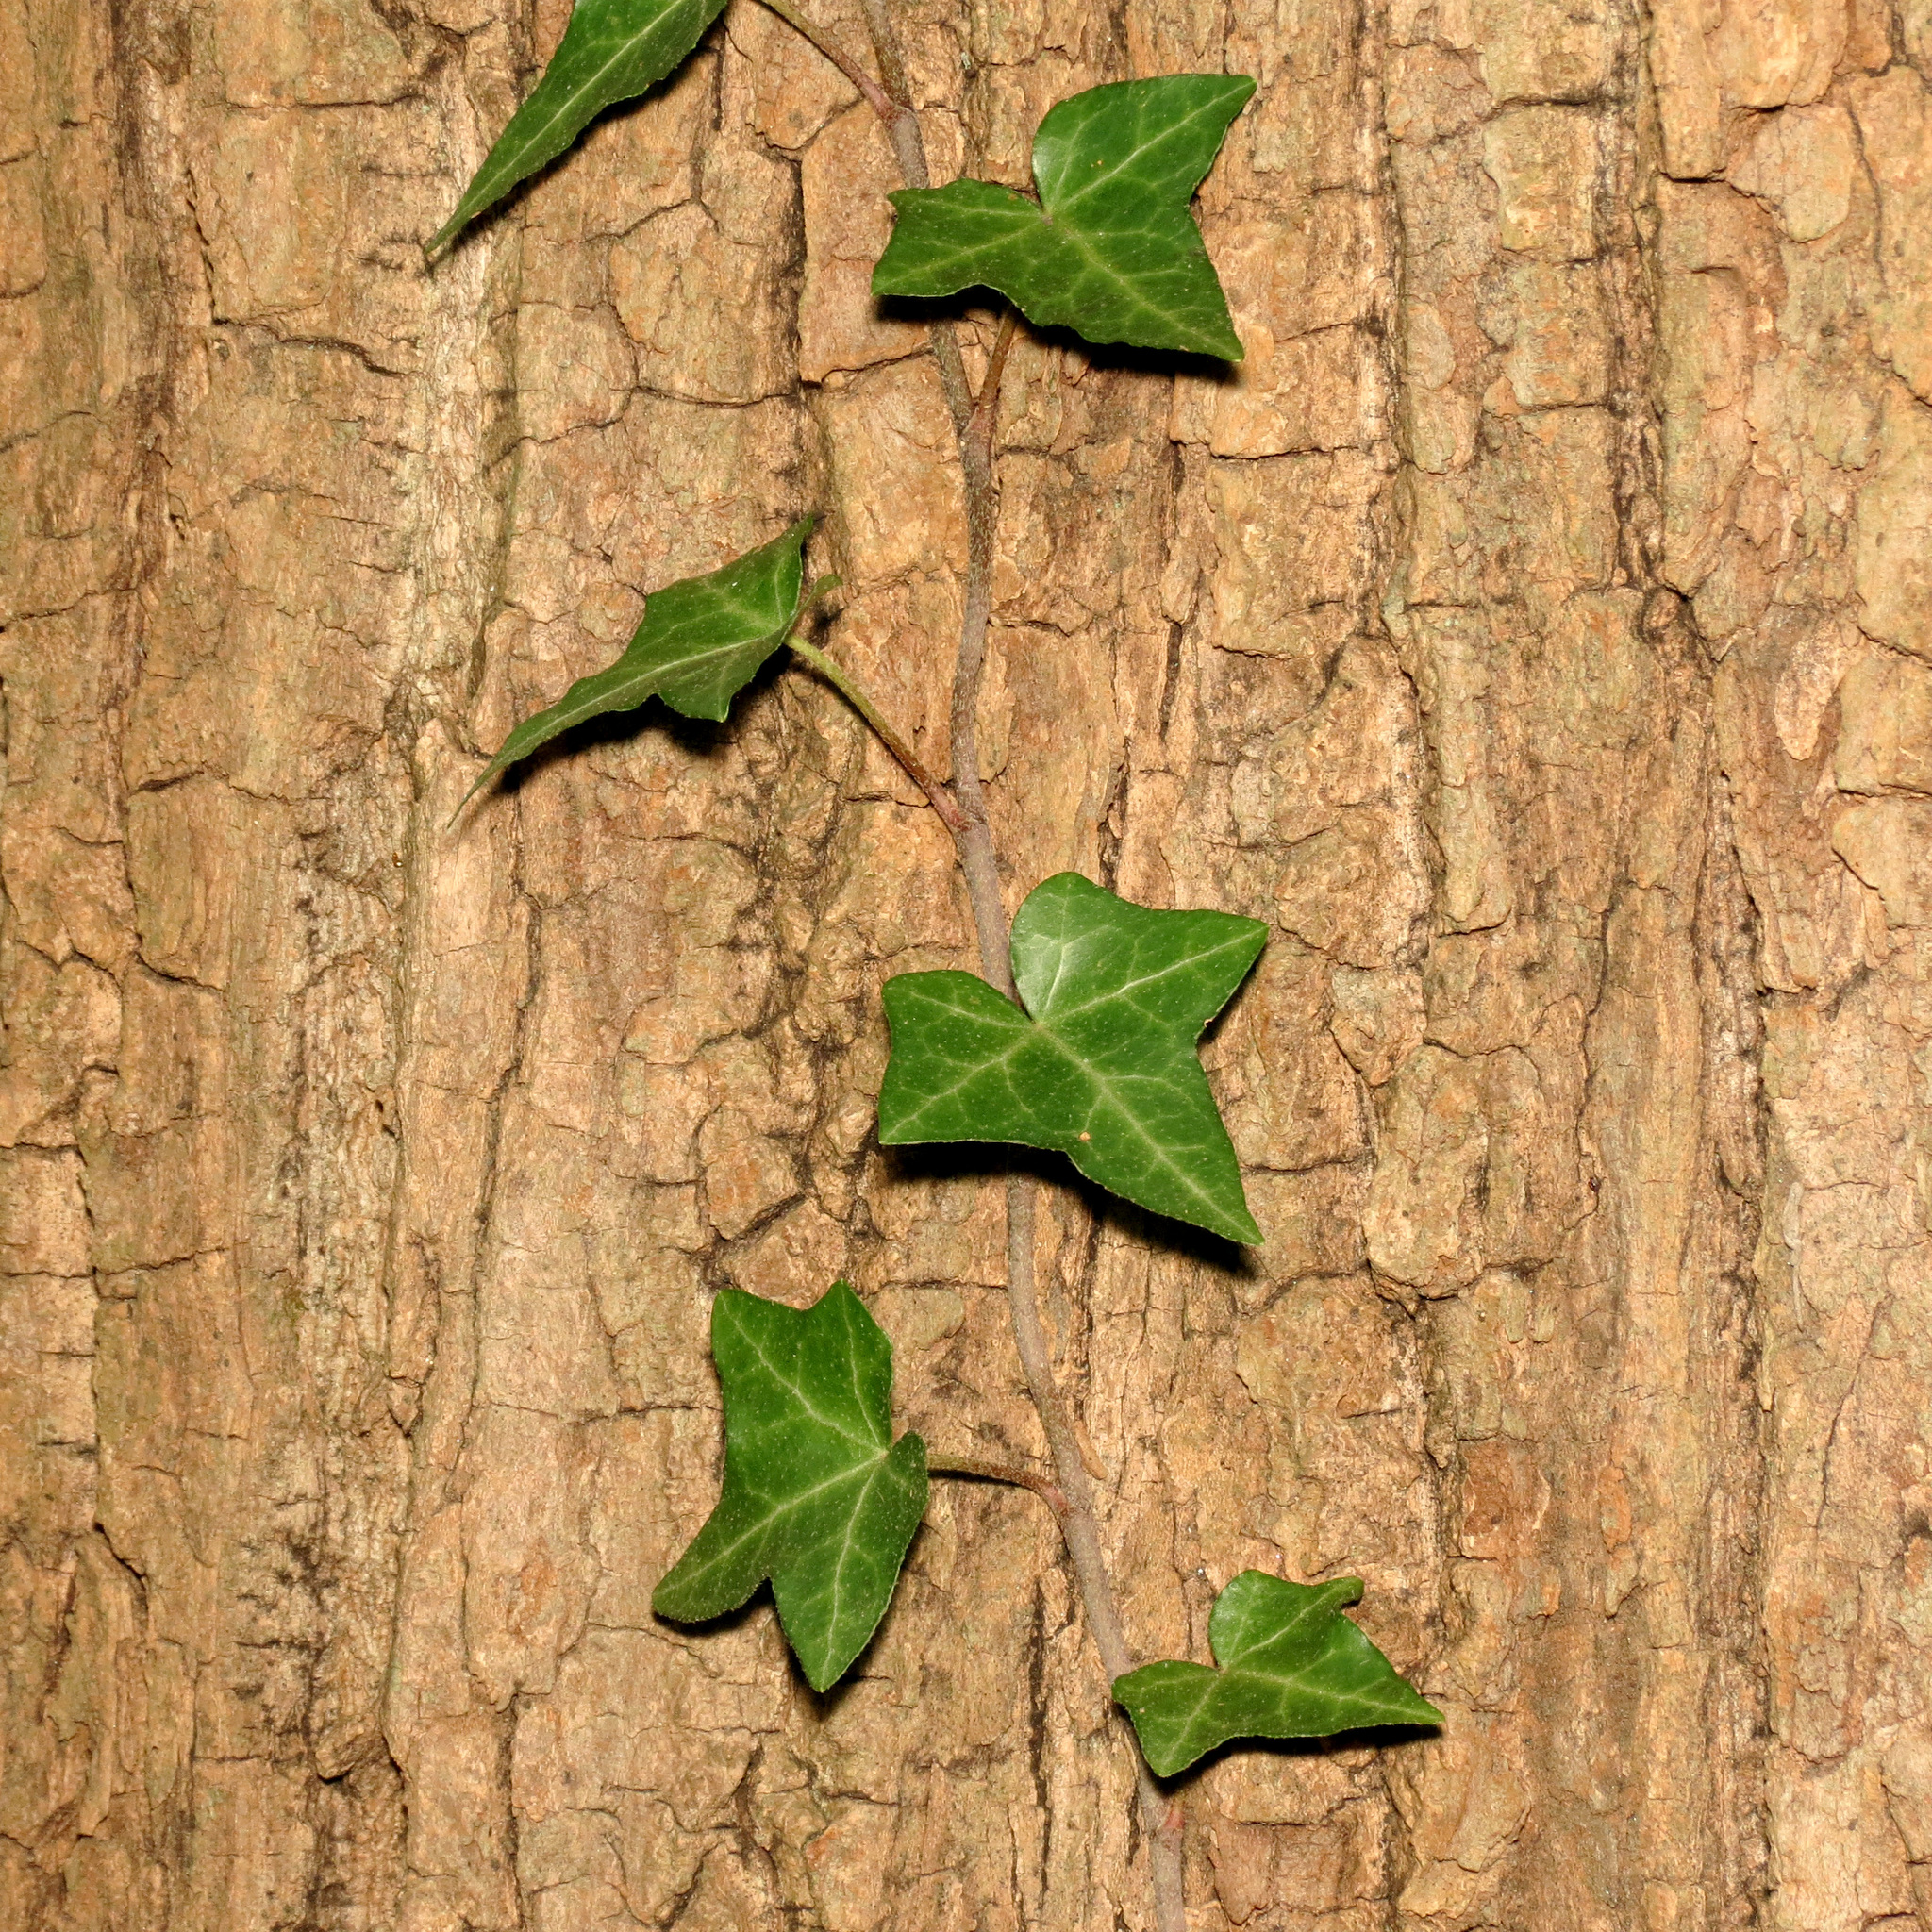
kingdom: Plantae
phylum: Tracheophyta
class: Magnoliopsida
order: Apiales
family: Araliaceae
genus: Hedera
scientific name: Hedera helix
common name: Ivy
